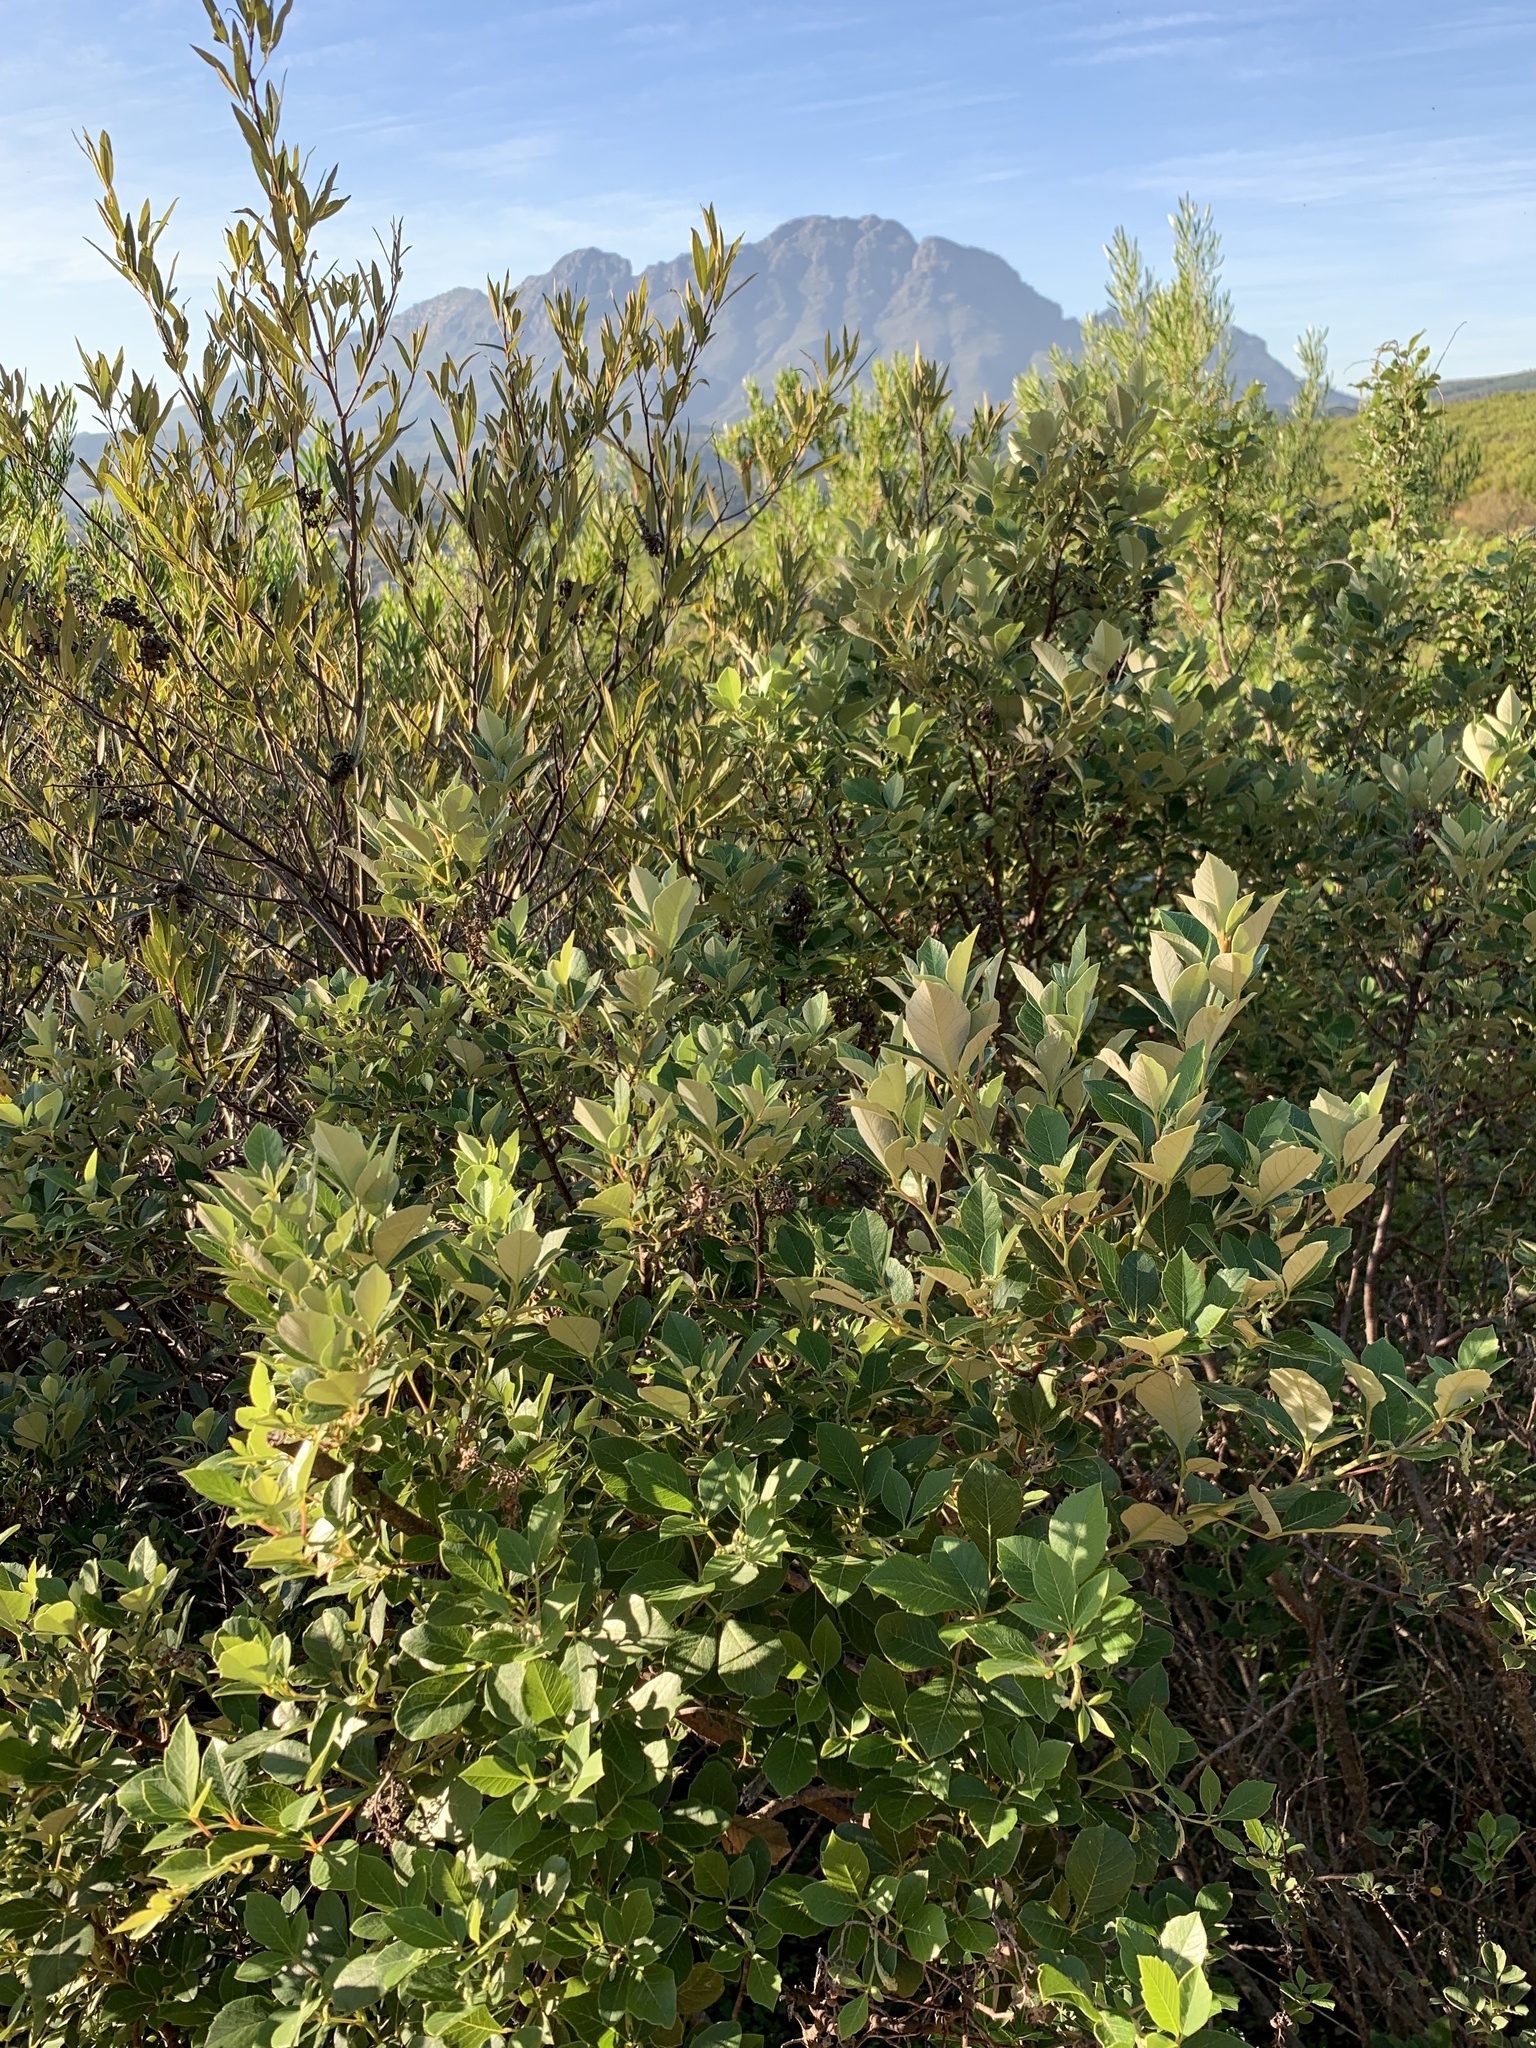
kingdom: Plantae
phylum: Tracheophyta
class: Magnoliopsida
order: Sapindales
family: Anacardiaceae
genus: Searsia
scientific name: Searsia tomentosa
